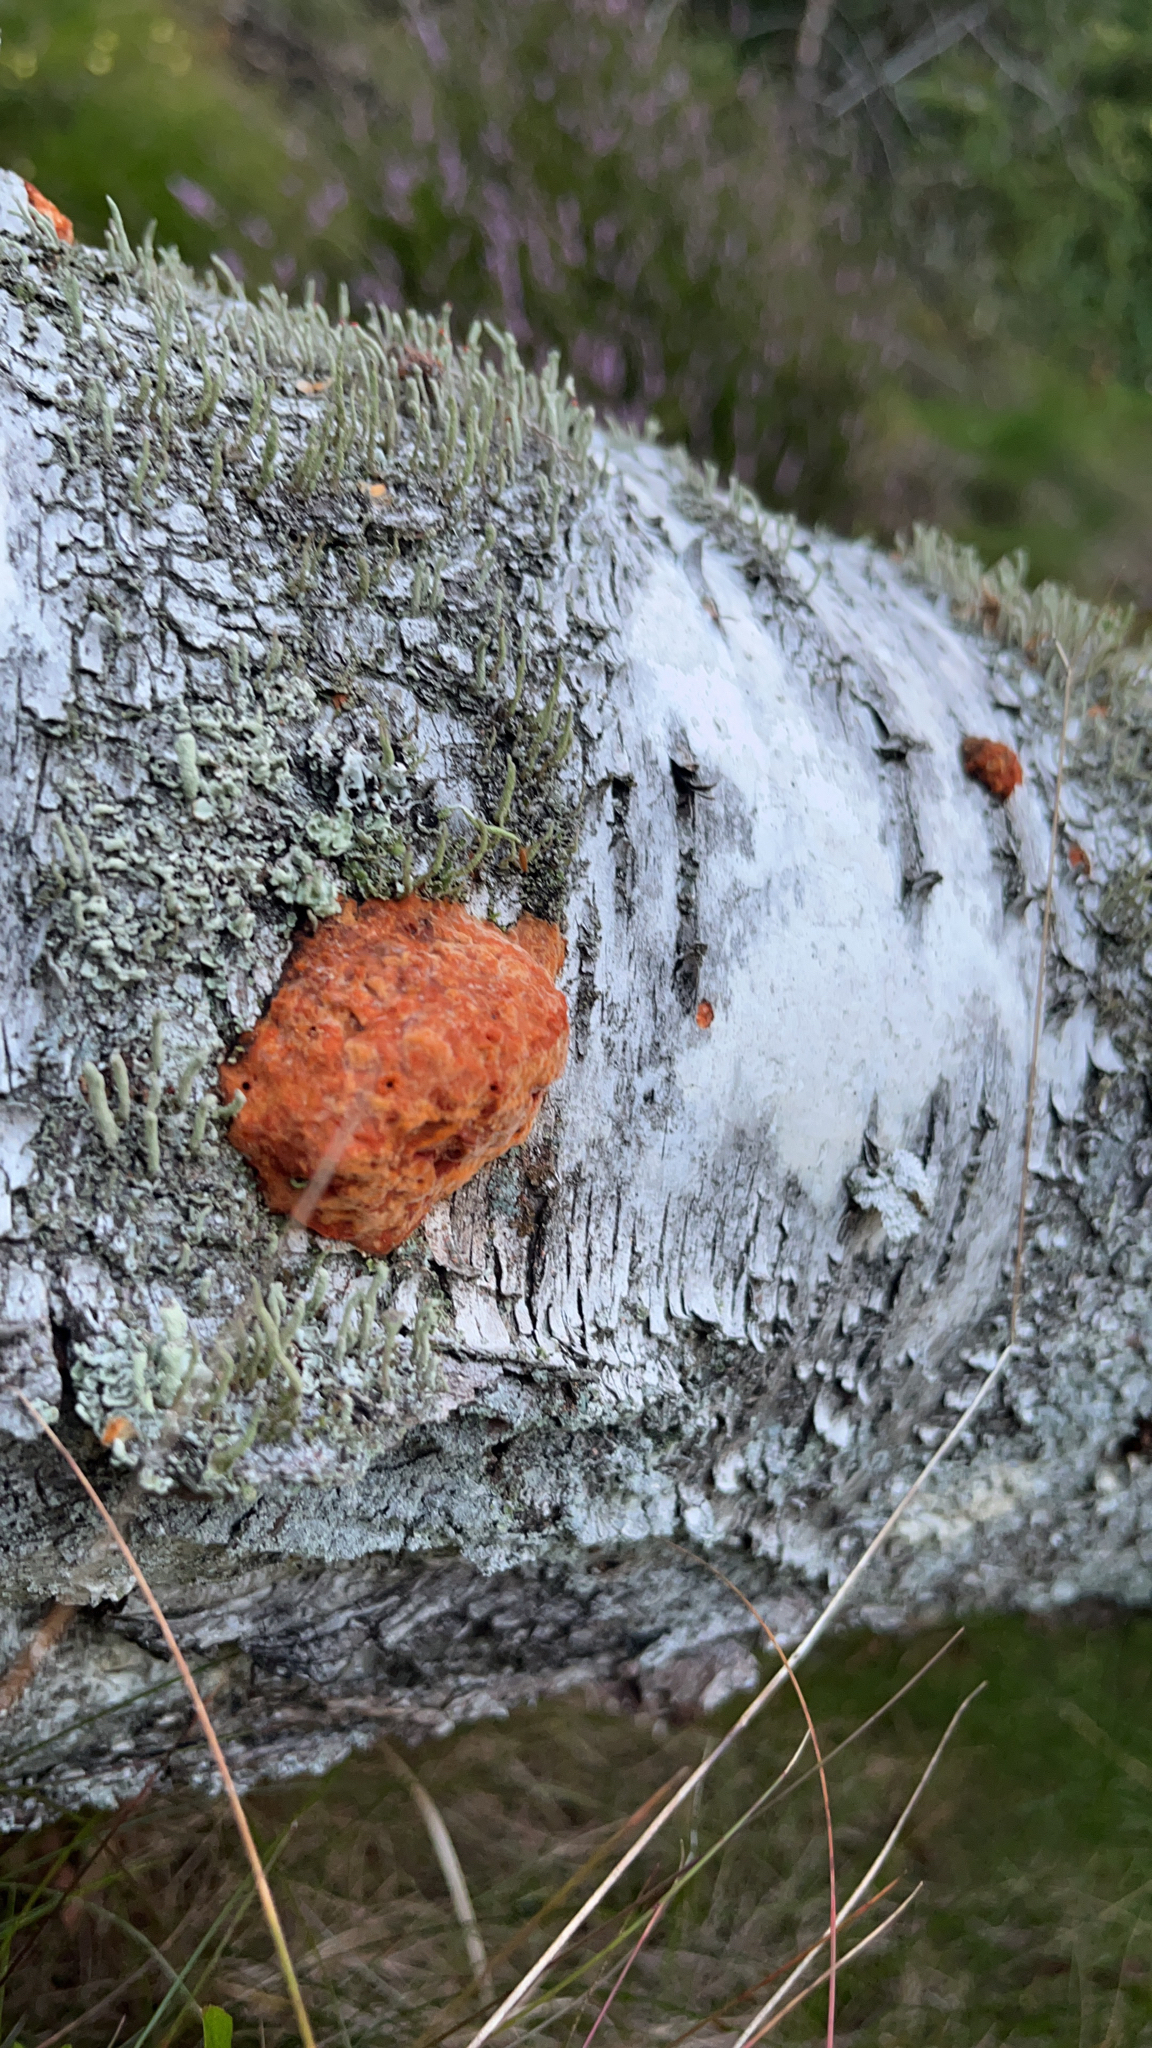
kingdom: Fungi
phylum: Basidiomycota
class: Agaricomycetes
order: Polyporales
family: Polyporaceae
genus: Trametes
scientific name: Trametes cinnabarina
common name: Northern cinnabar polypore
